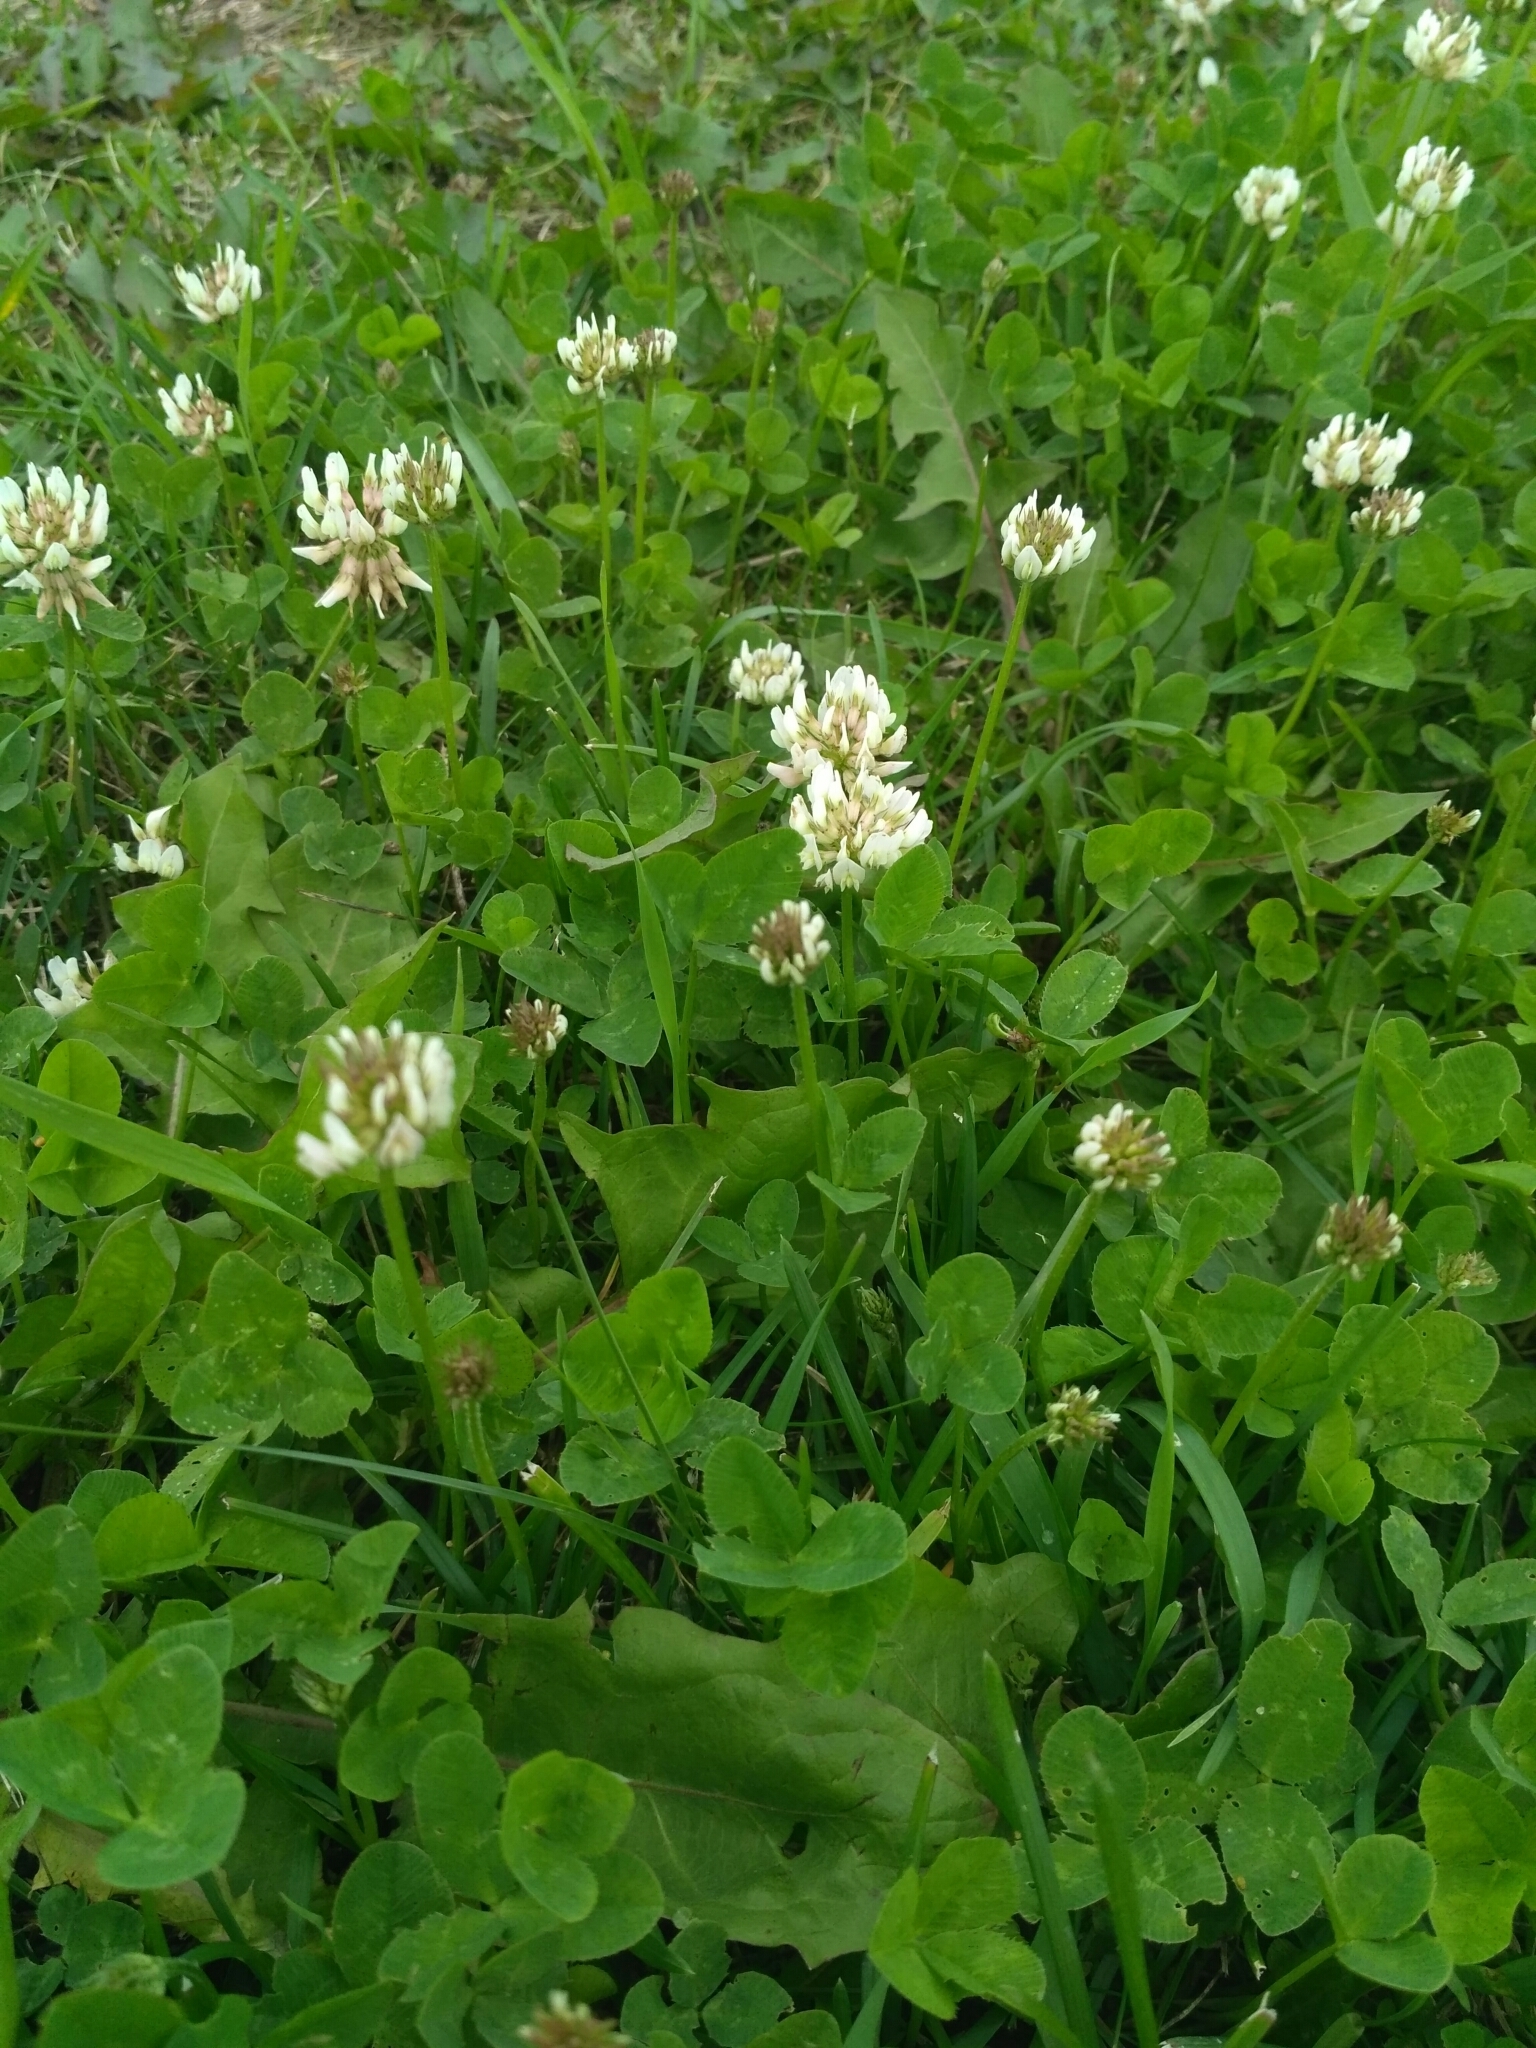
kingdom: Plantae
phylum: Tracheophyta
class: Magnoliopsida
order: Fabales
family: Fabaceae
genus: Trifolium
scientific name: Trifolium repens
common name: White clover
